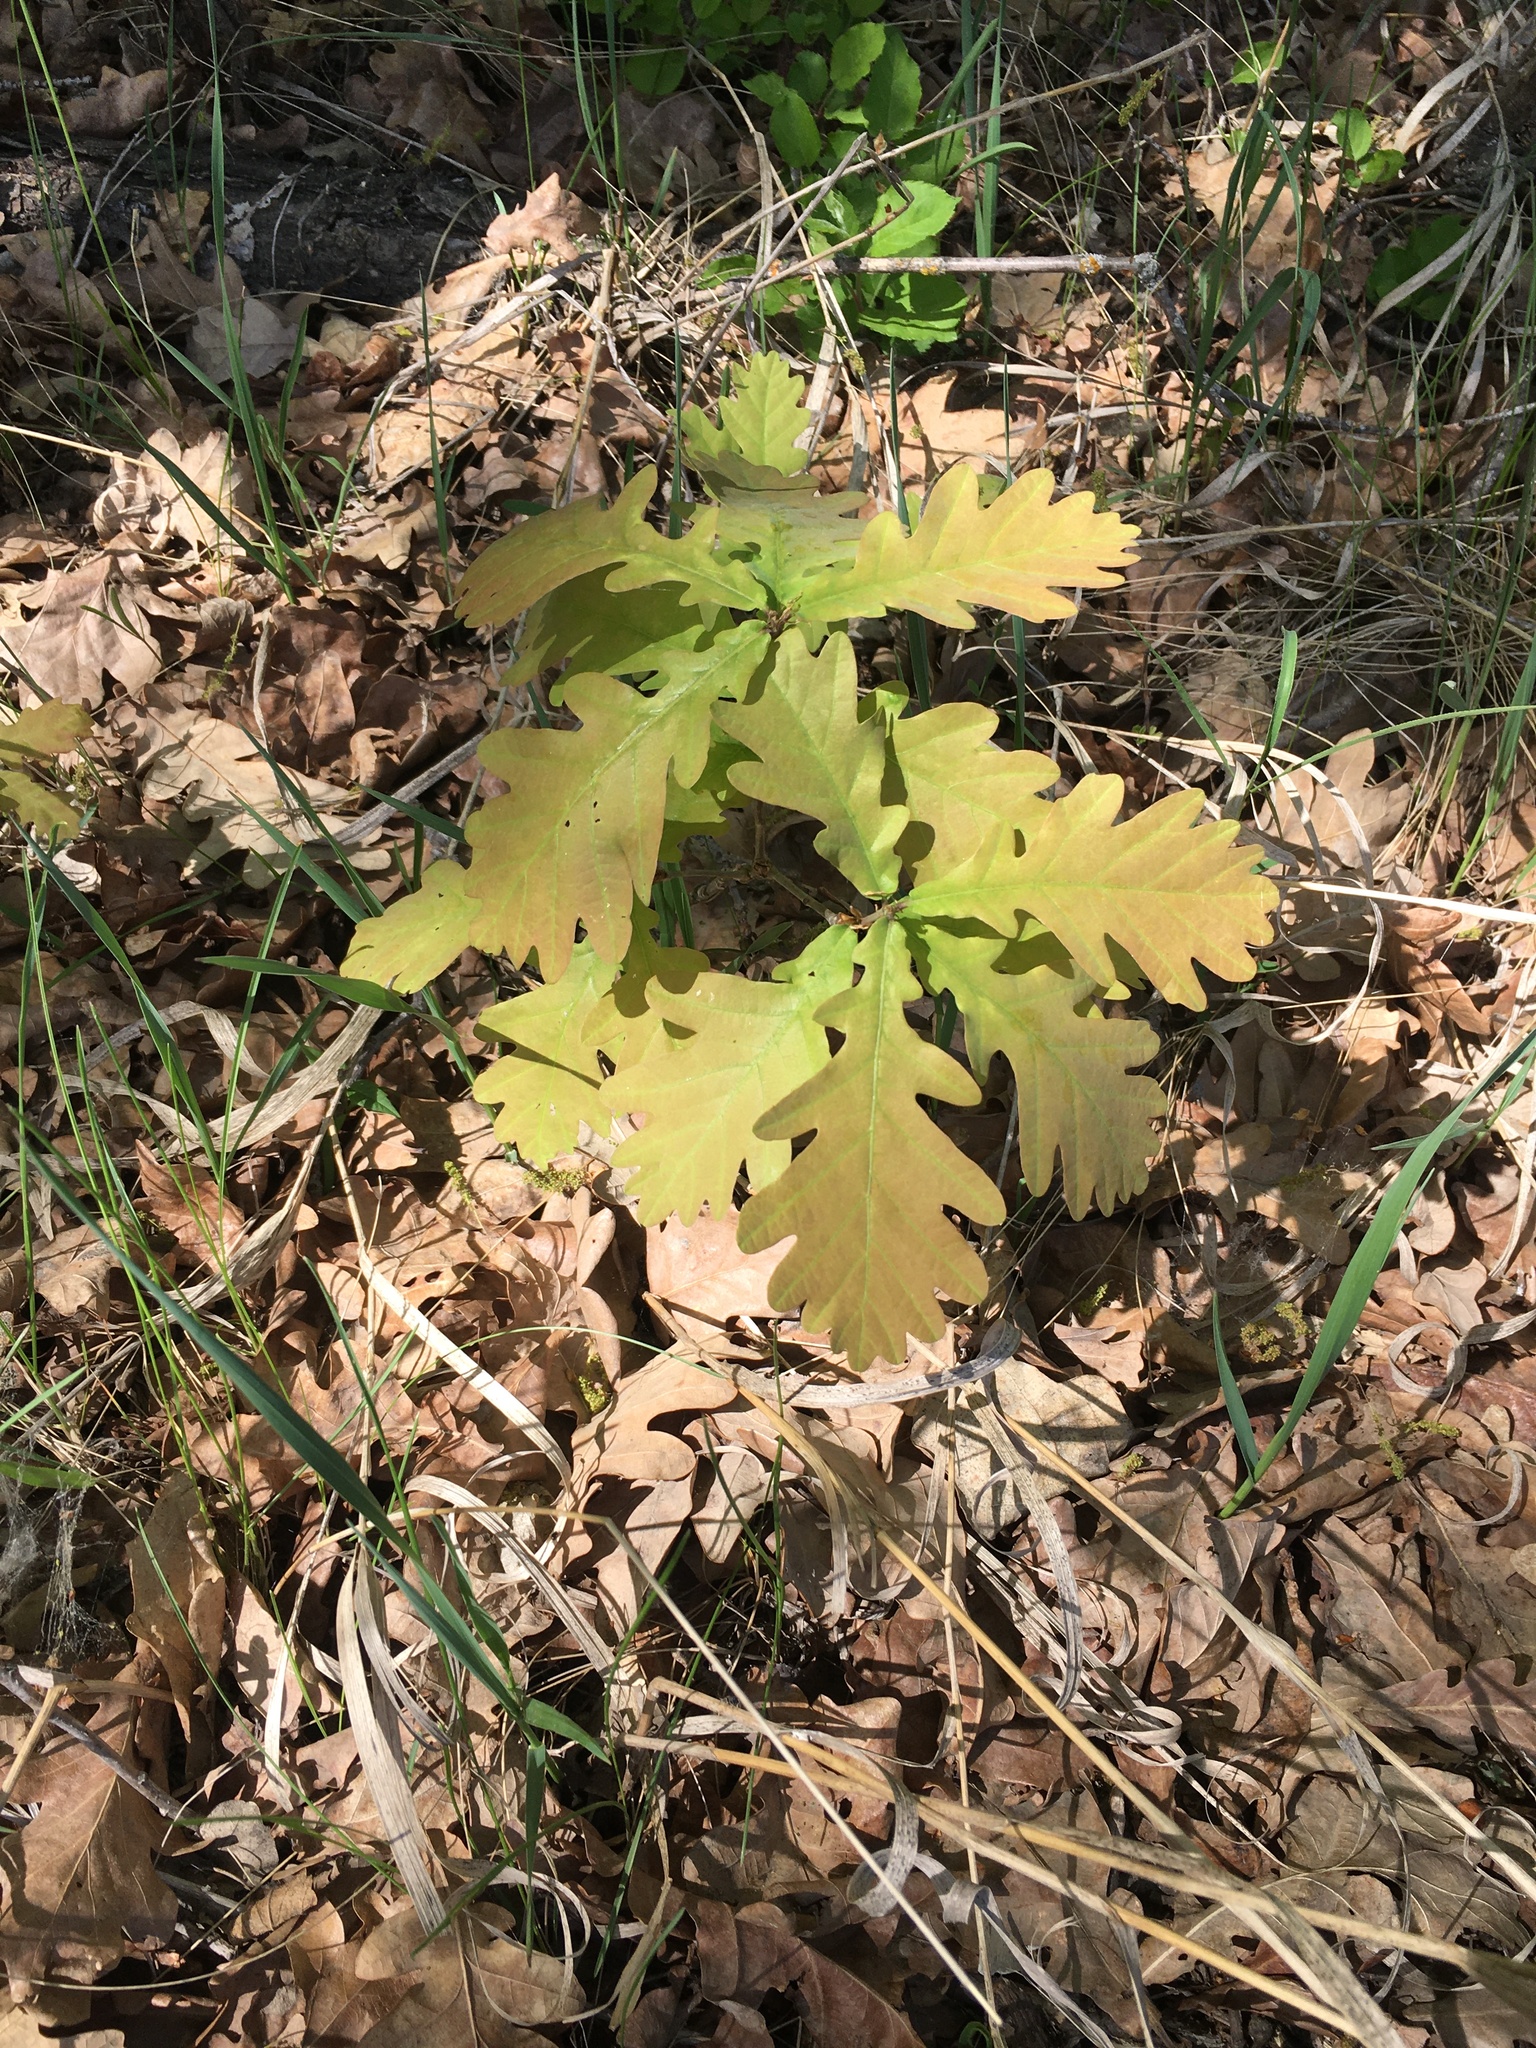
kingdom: Plantae
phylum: Tracheophyta
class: Magnoliopsida
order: Fagales
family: Fagaceae
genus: Quercus
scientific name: Quercus robur
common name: Pedunculate oak
